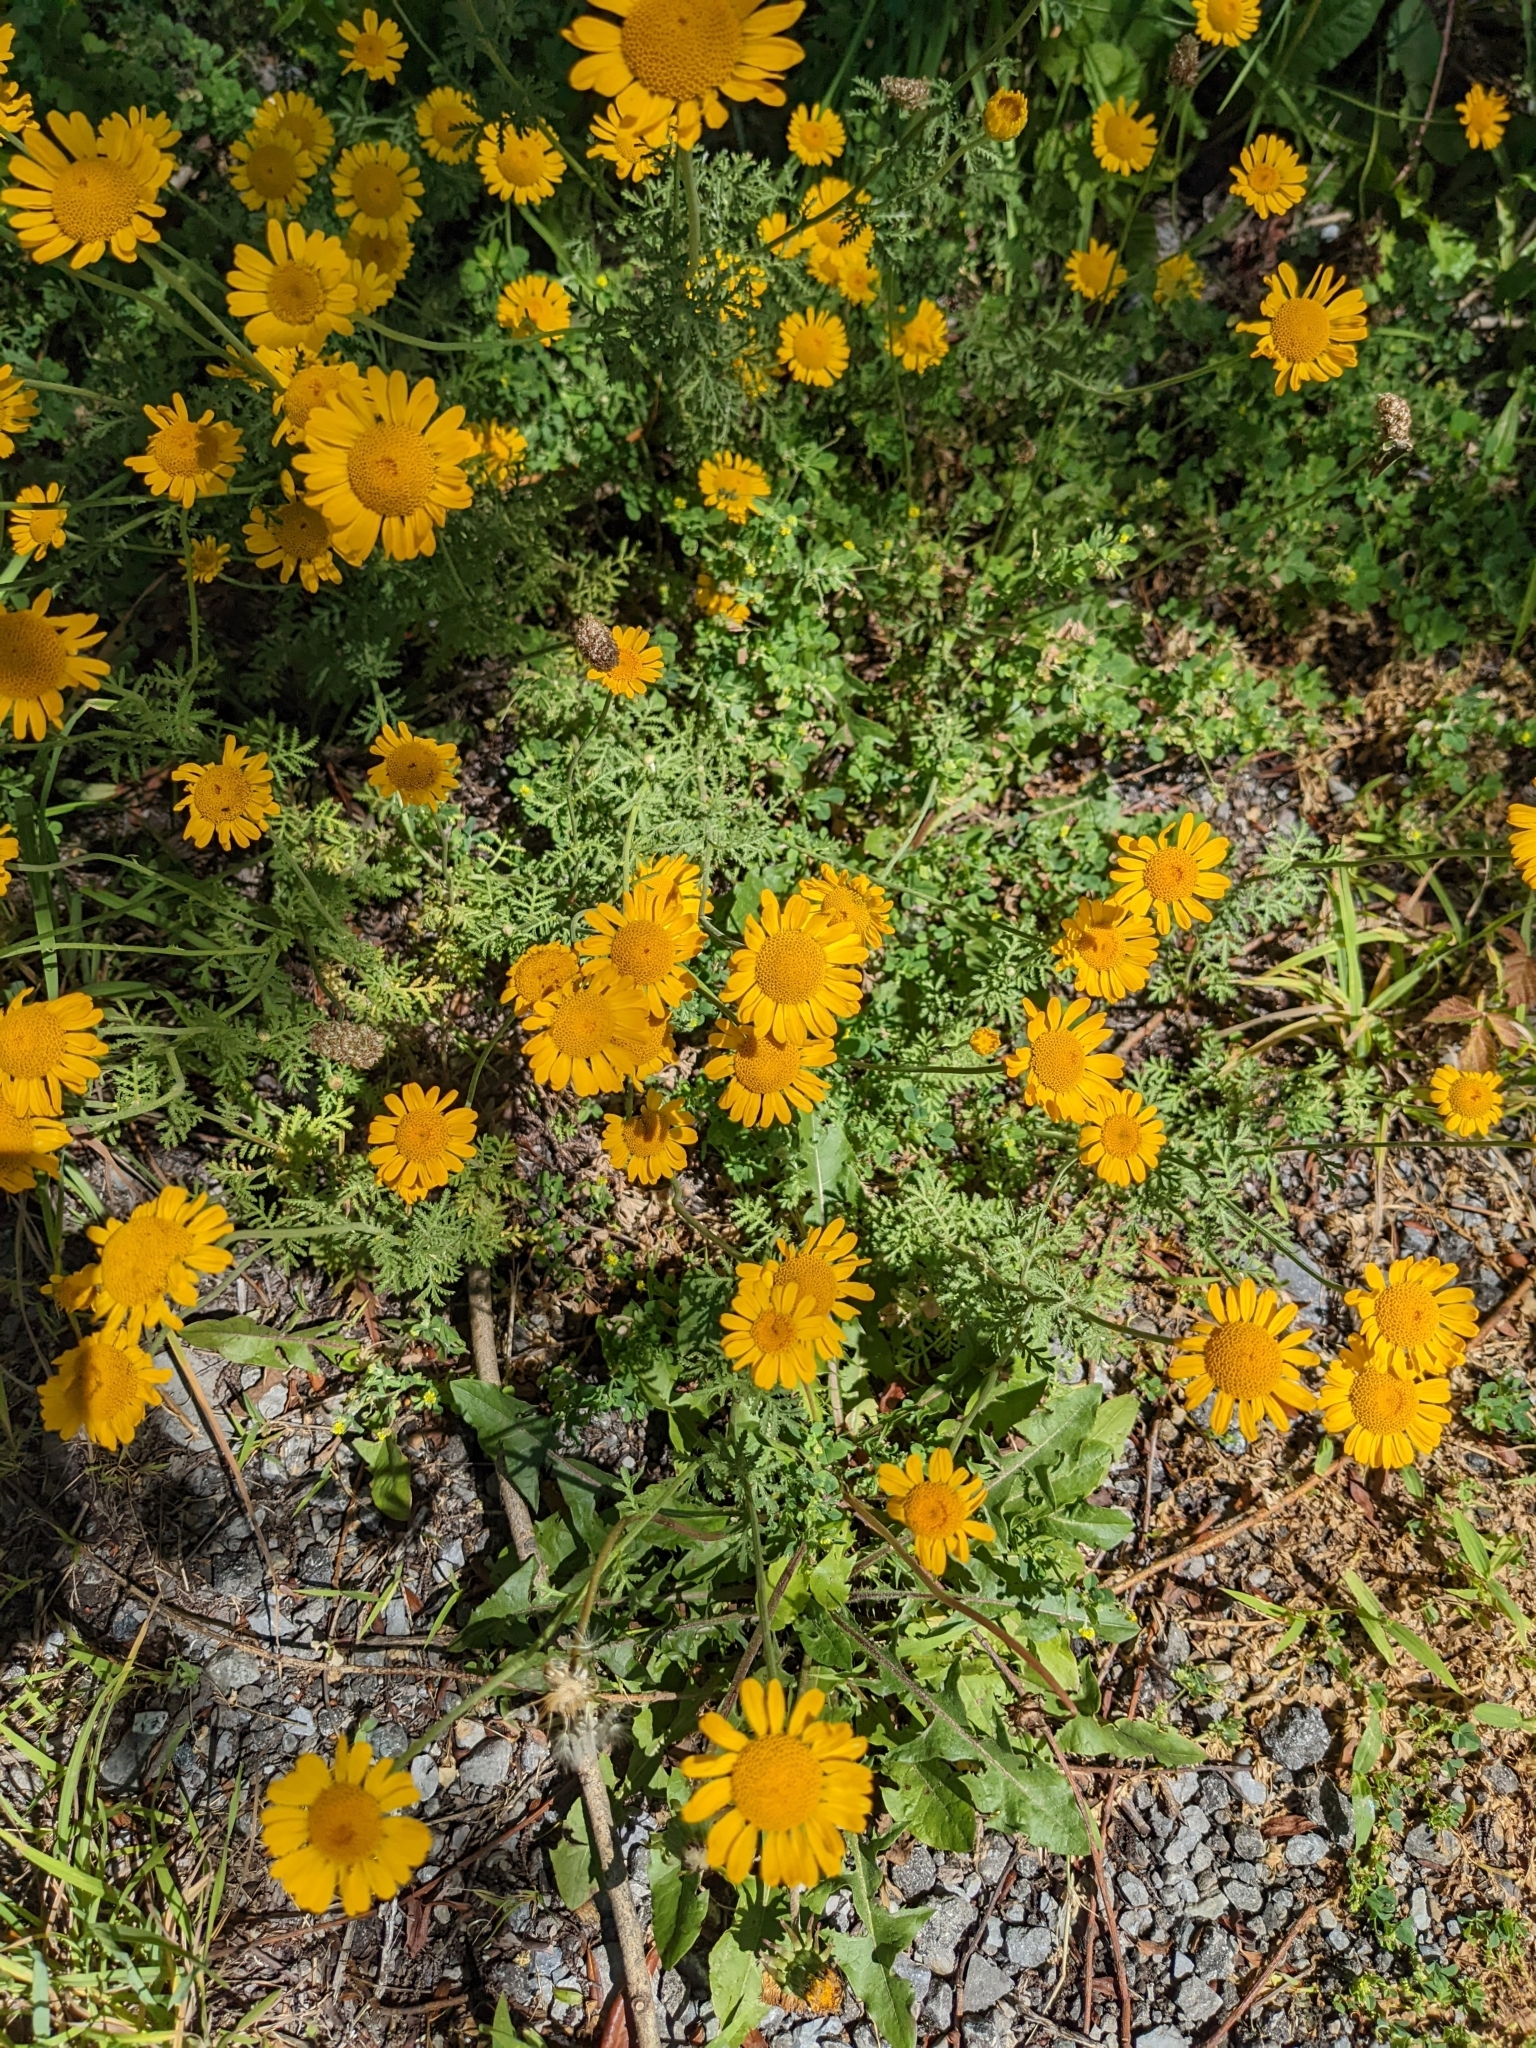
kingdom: Plantae
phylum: Tracheophyta
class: Magnoliopsida
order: Asterales
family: Asteraceae
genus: Cota
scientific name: Cota tinctoria
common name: Golden chamomile
